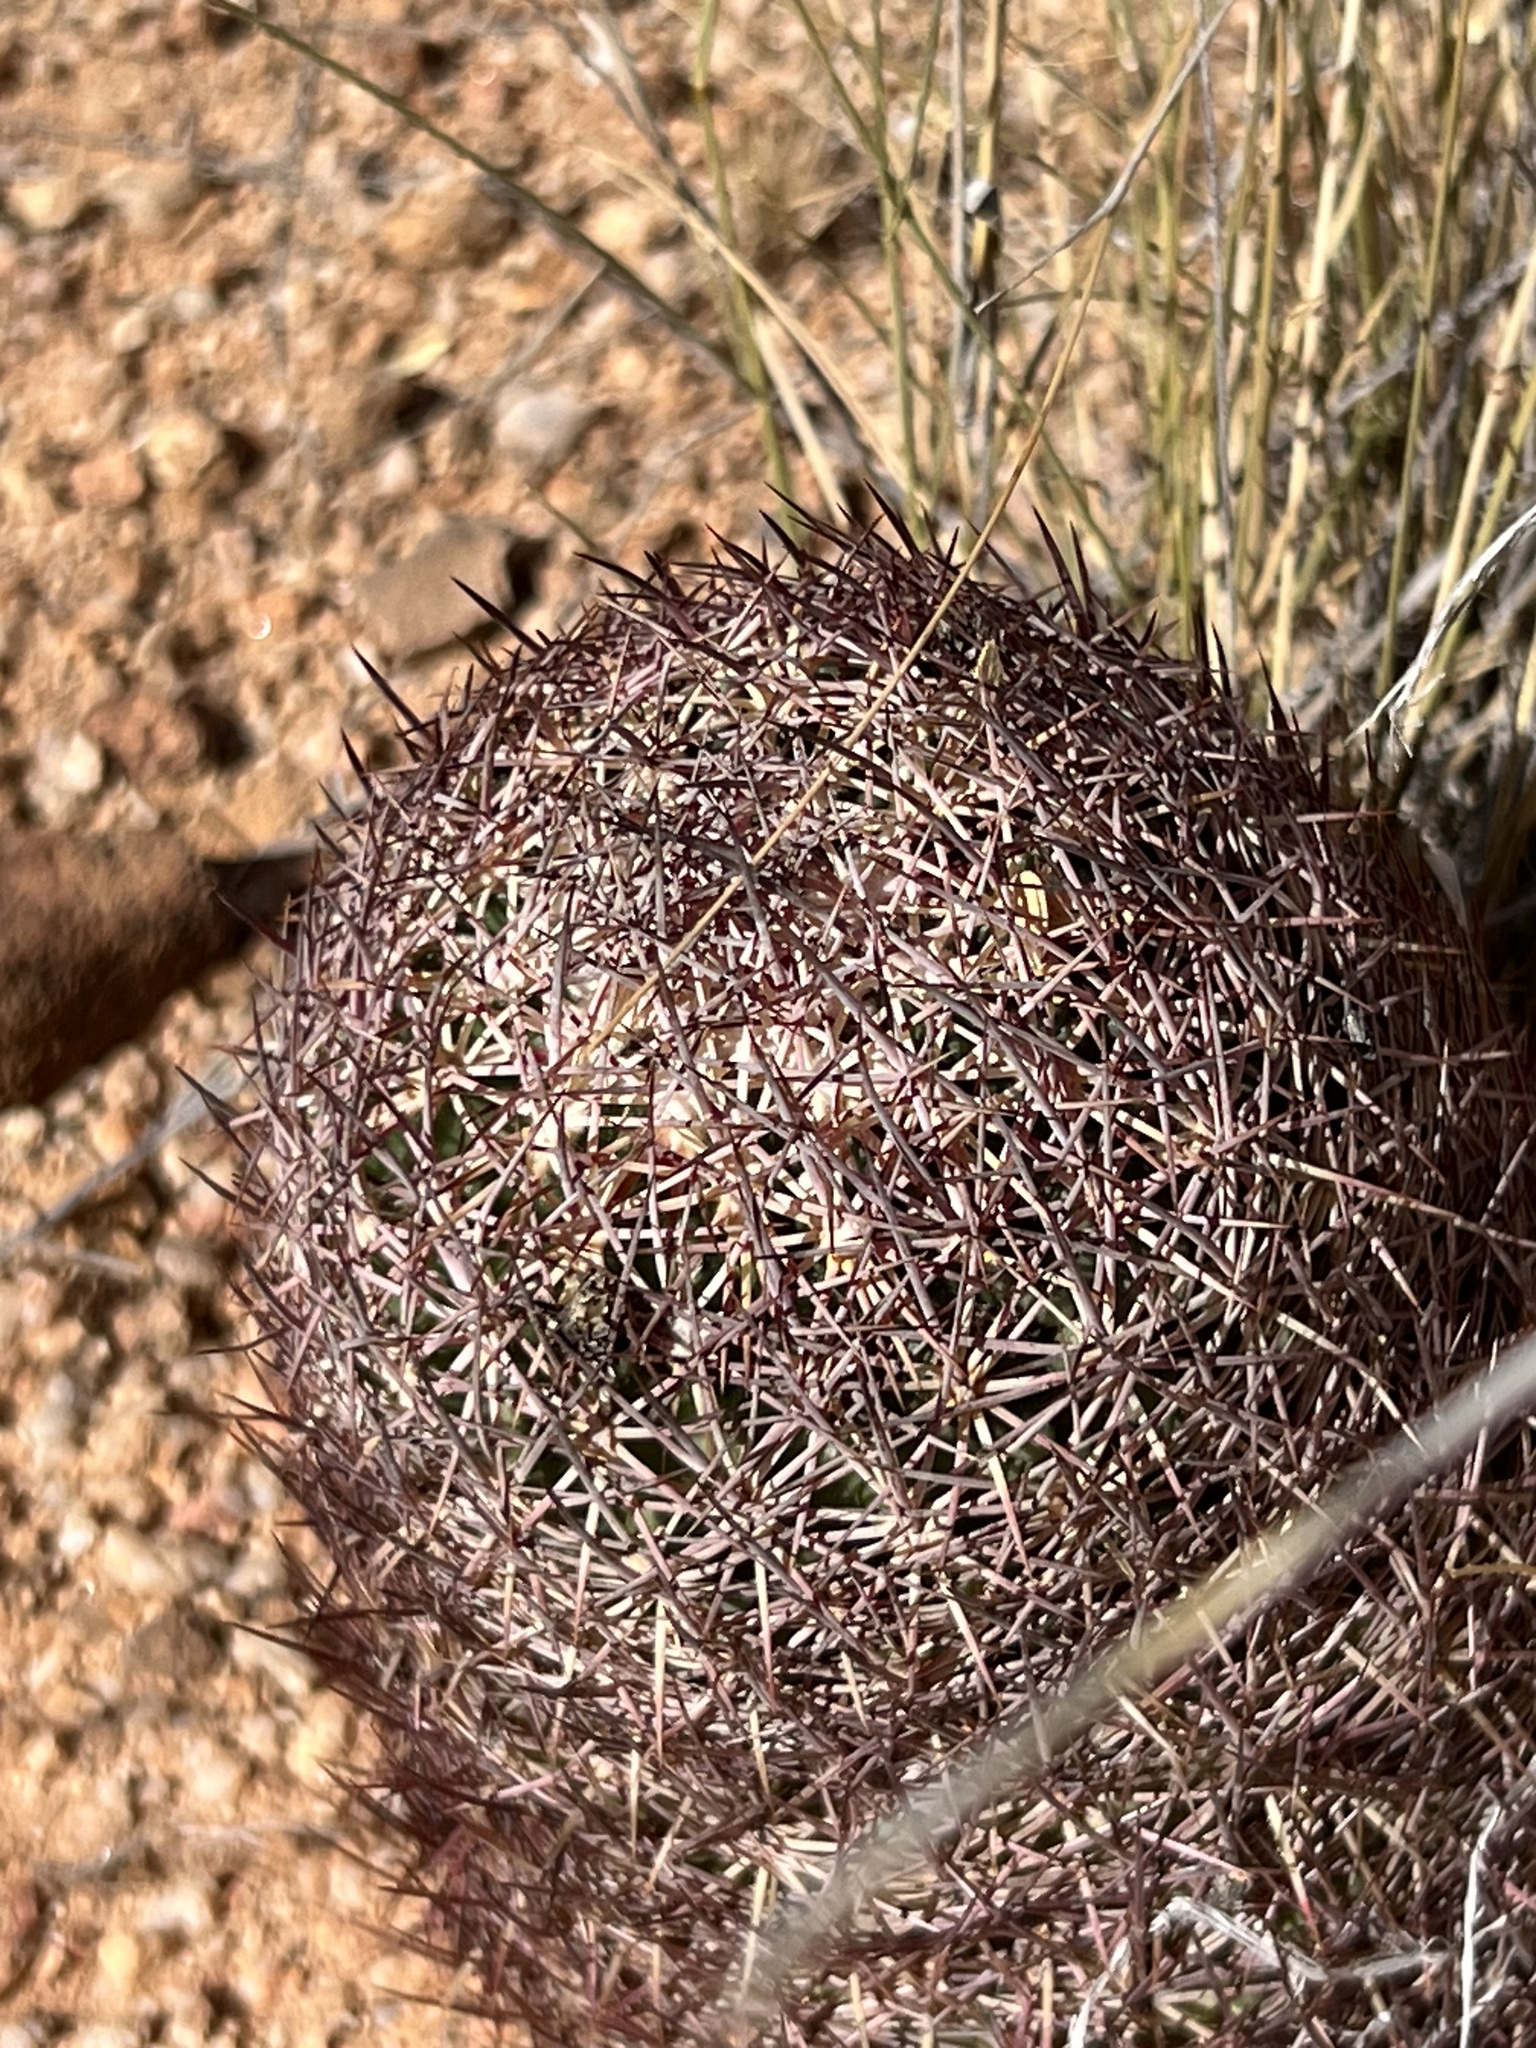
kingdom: Plantae
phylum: Tracheophyta
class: Magnoliopsida
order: Caryophyllales
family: Cactaceae
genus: Sclerocactus
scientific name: Sclerocactus johnsonii
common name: Eight-spine fishhook cactus
